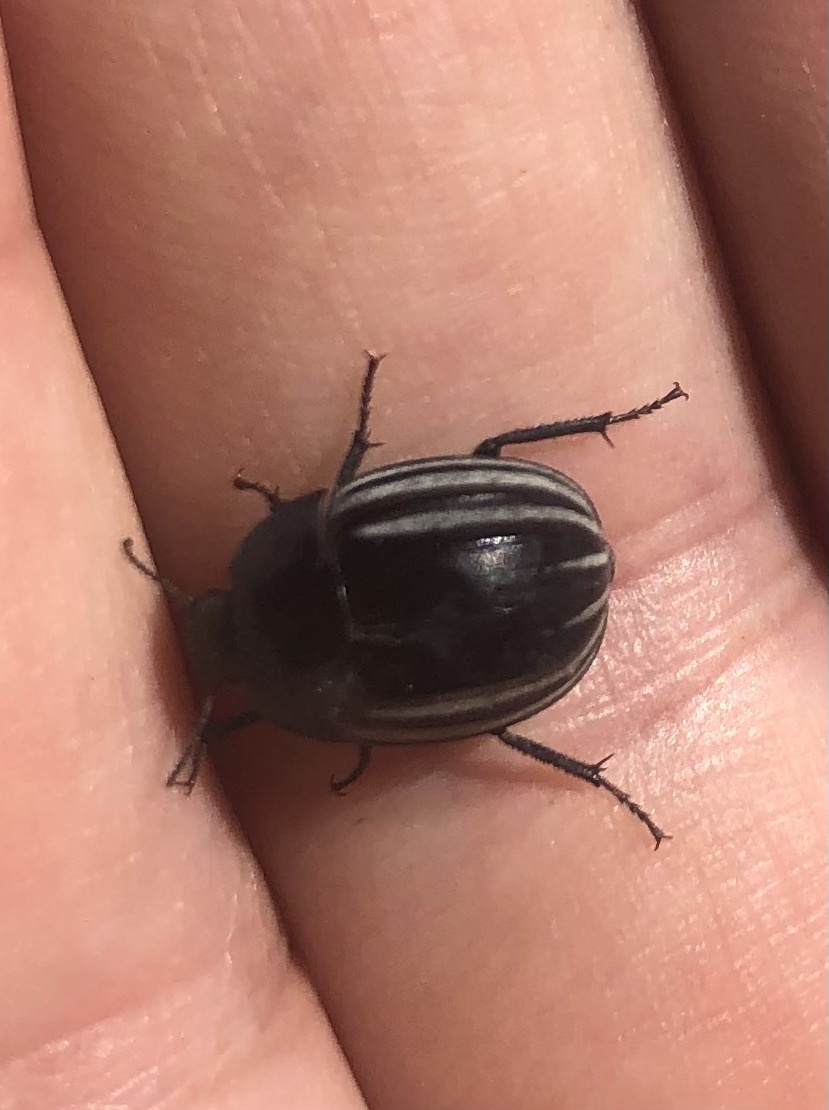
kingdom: Animalia
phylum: Arthropoda
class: Insecta
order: Coleoptera
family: Tenebrionidae
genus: Praocis
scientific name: Praocis spinolai
